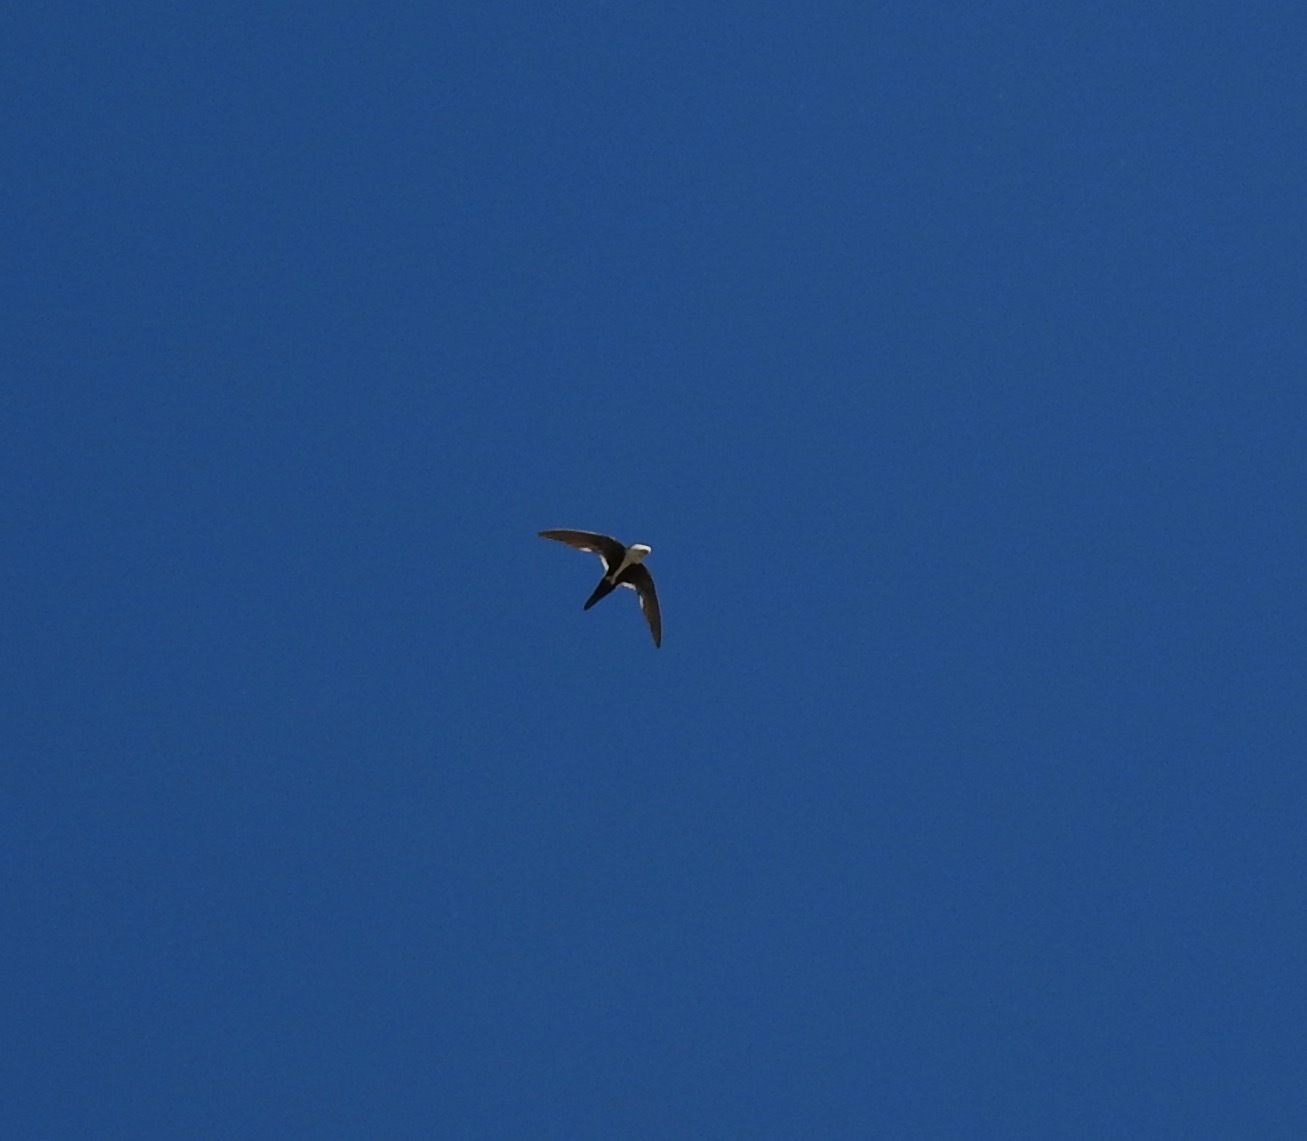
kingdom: Animalia
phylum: Chordata
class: Aves
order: Apodiformes
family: Apodidae
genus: Aeronautes
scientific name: Aeronautes saxatalis
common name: White-throated swift
